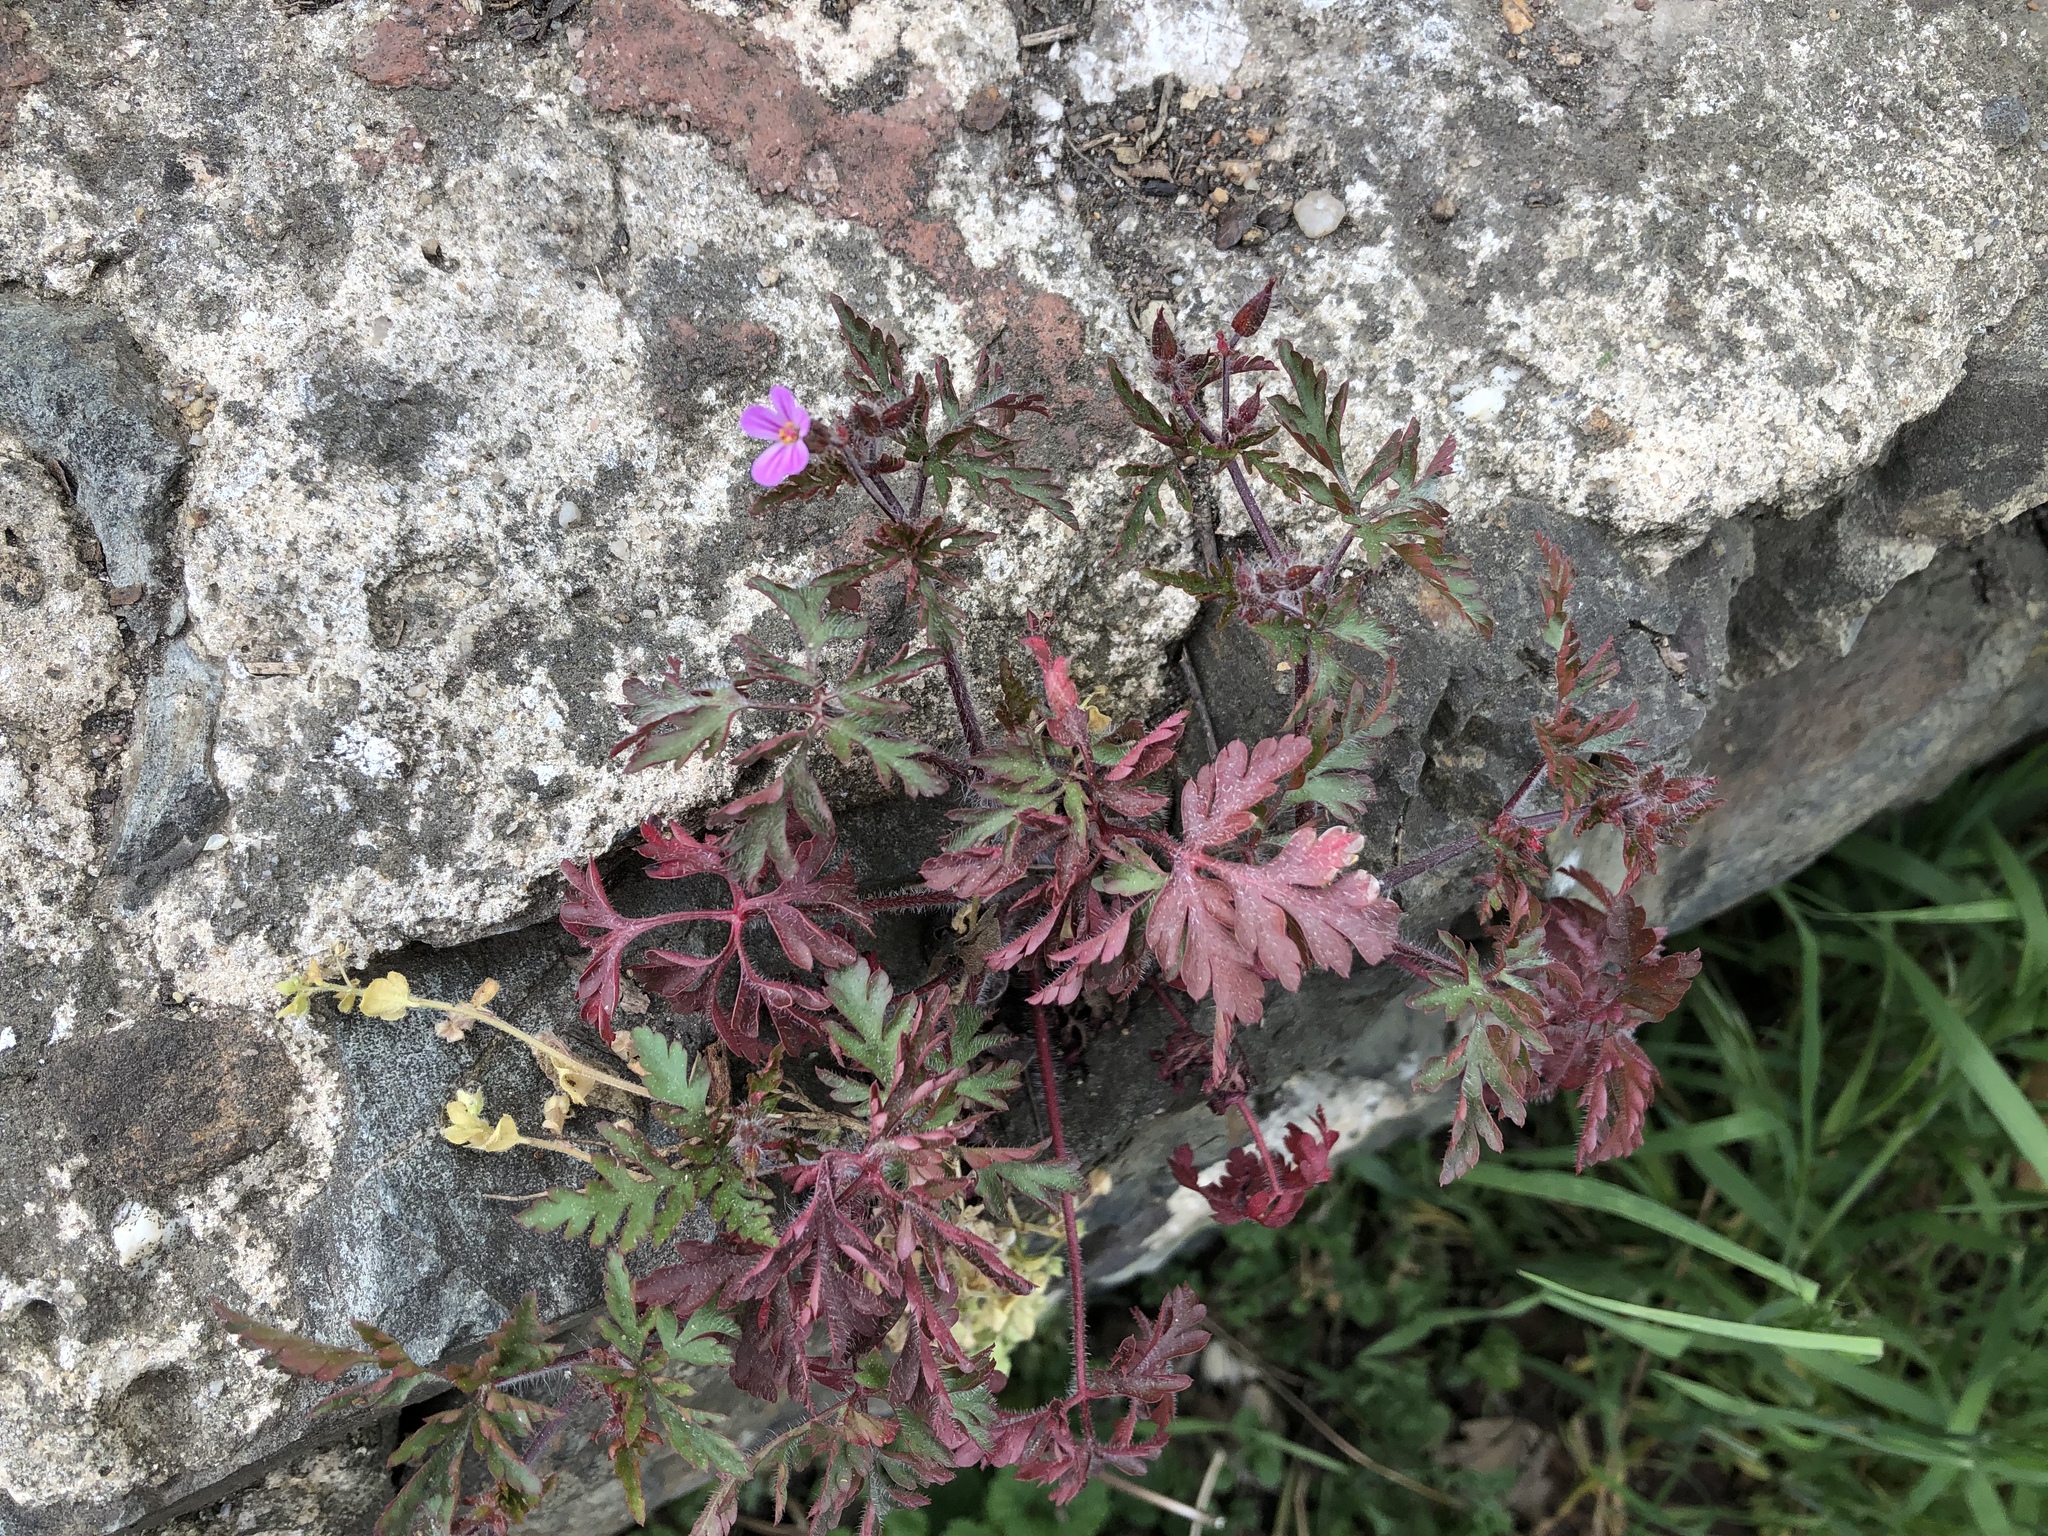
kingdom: Plantae
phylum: Tracheophyta
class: Magnoliopsida
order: Geraniales
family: Geraniaceae
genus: Geranium
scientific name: Geranium robertianum
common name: Herb-robert
